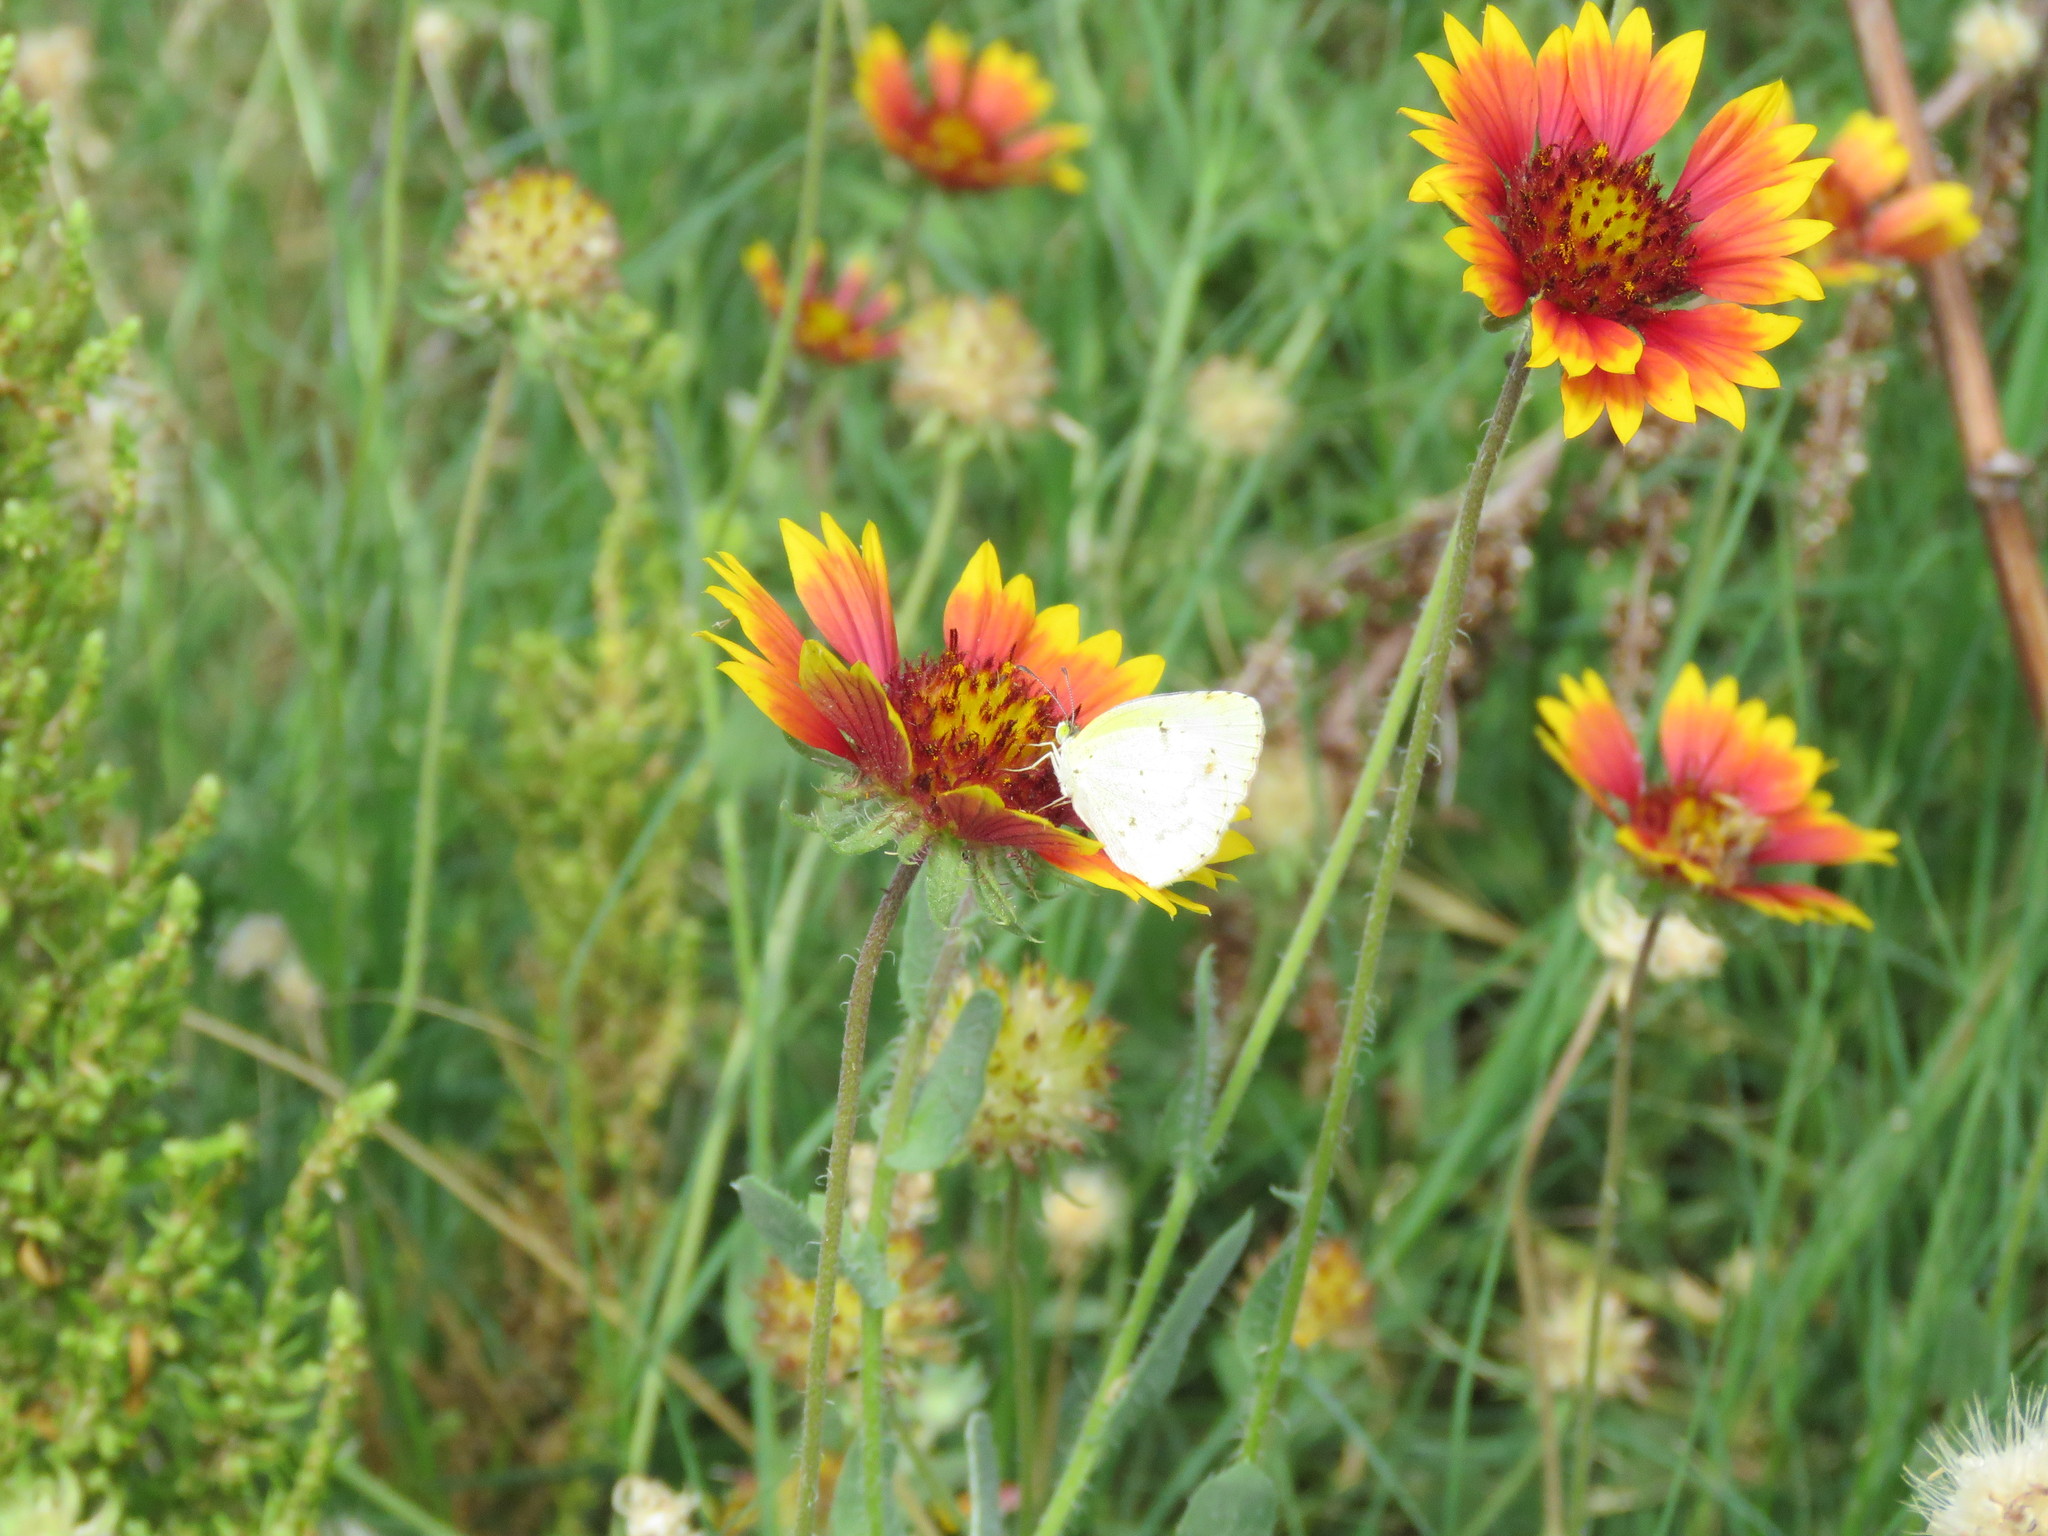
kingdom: Plantae
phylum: Tracheophyta
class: Magnoliopsida
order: Asterales
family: Asteraceae
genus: Gaillardia
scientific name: Gaillardia pulchella
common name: Firewheel
